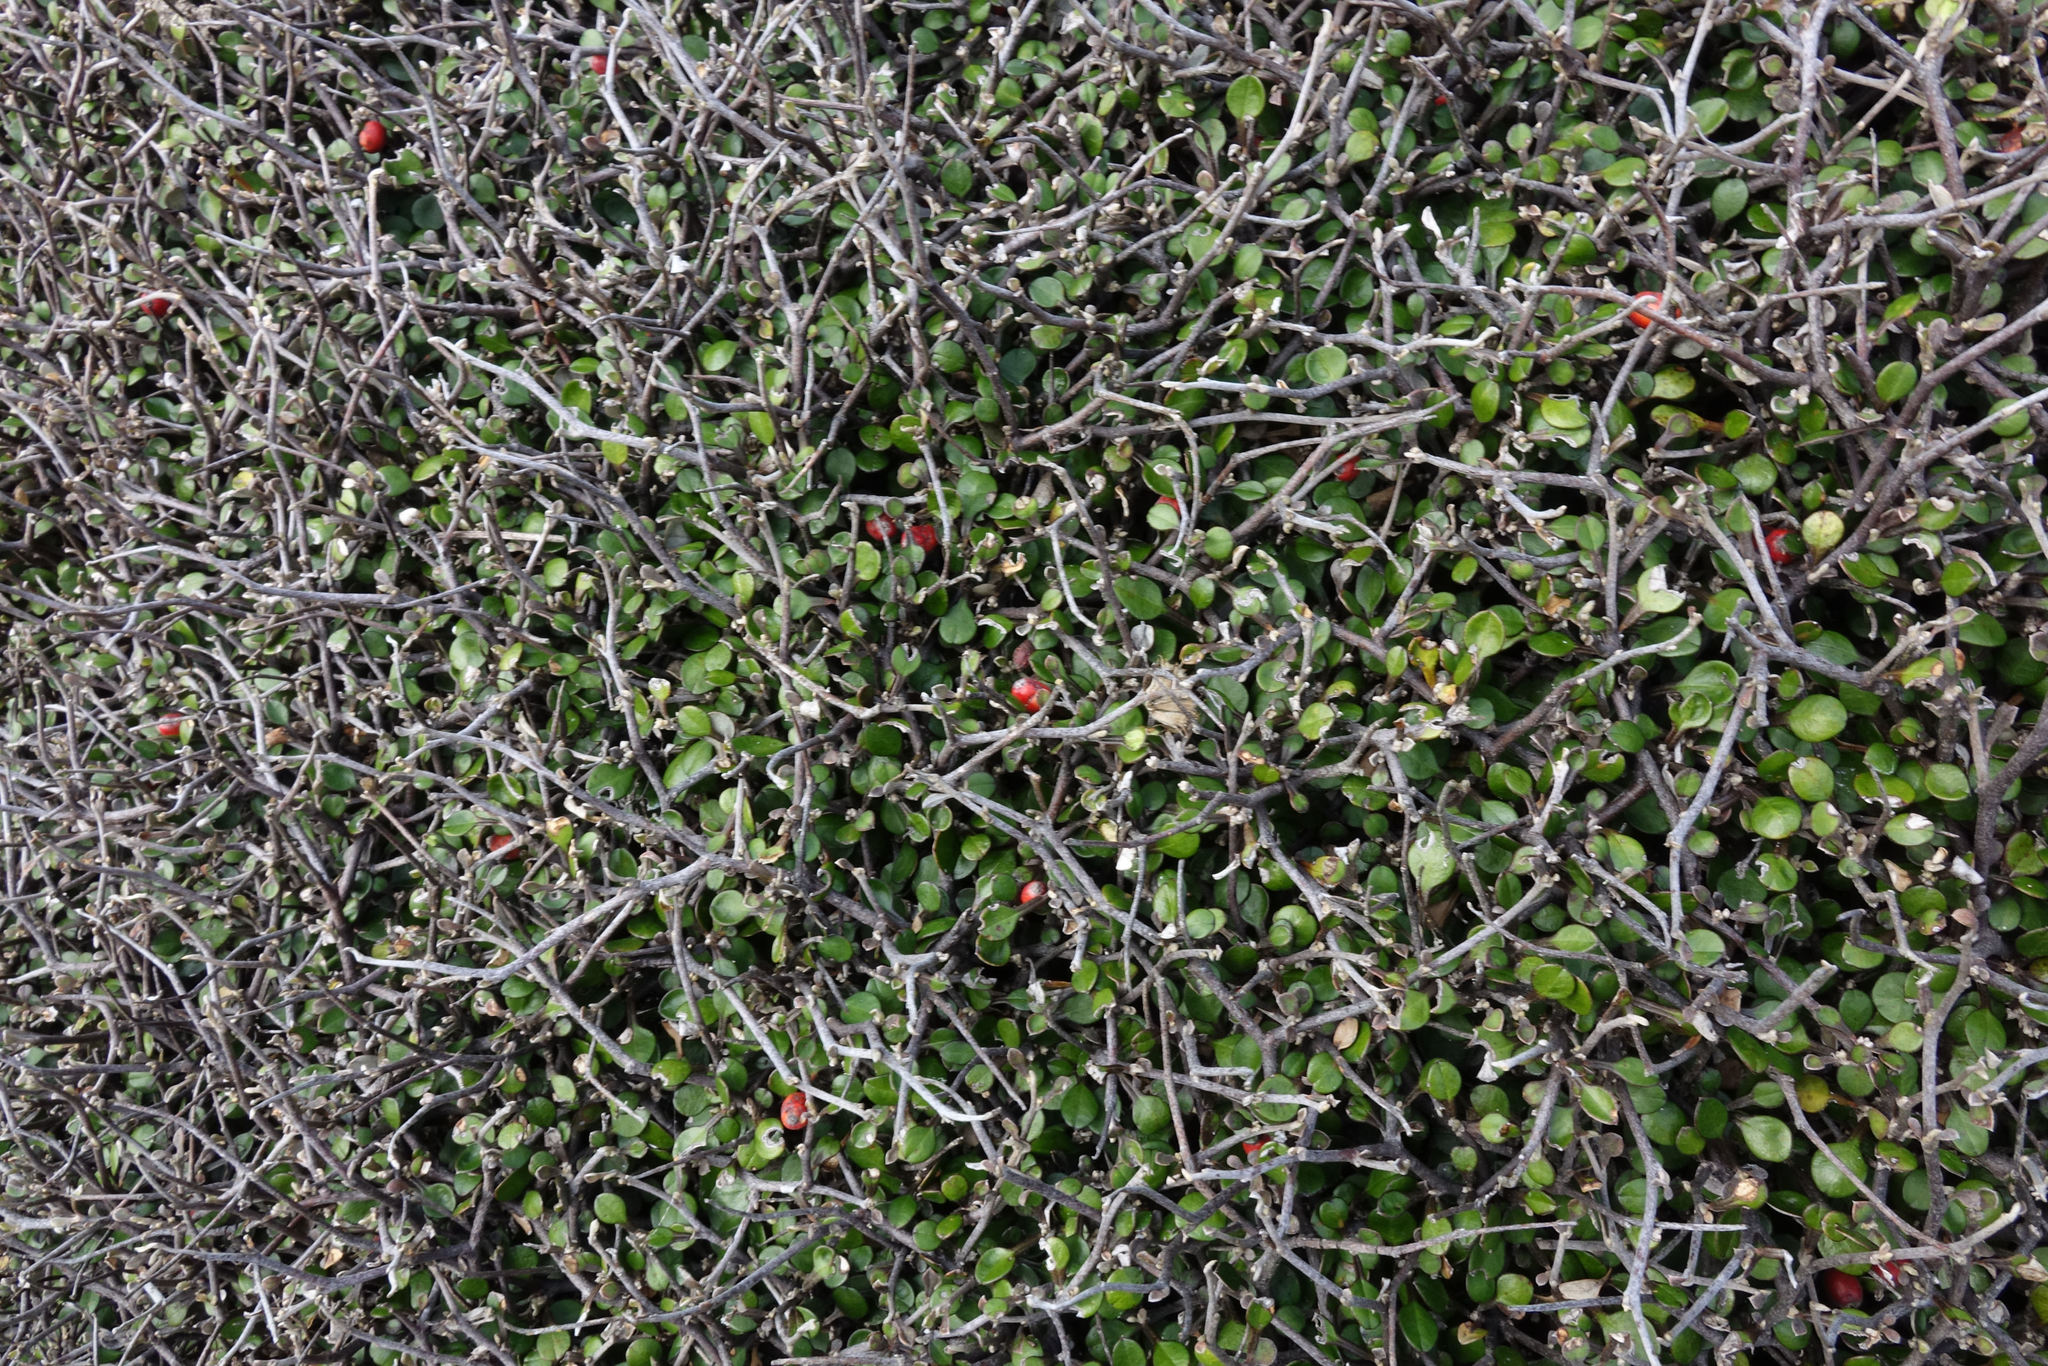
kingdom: Plantae
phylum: Tracheophyta
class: Magnoliopsida
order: Asterales
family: Argophyllaceae
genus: Corokia
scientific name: Corokia cotoneaster
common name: Wire nettingbush
